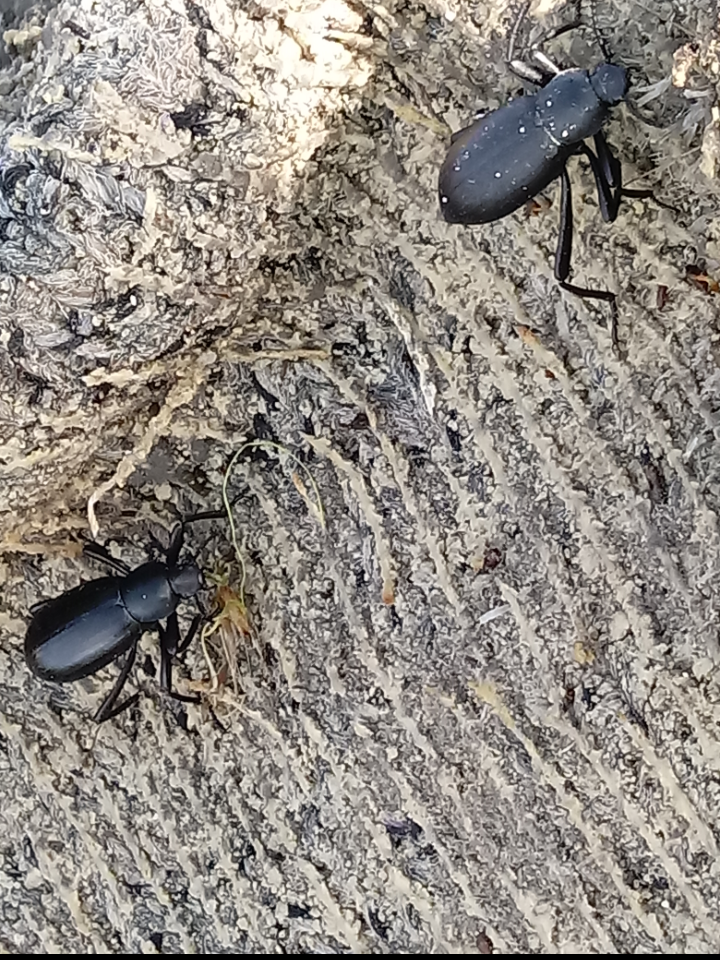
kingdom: Animalia
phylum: Arthropoda
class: Insecta
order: Coleoptera
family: Tenebrionidae
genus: Eleodes
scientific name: Eleodes gracilis
